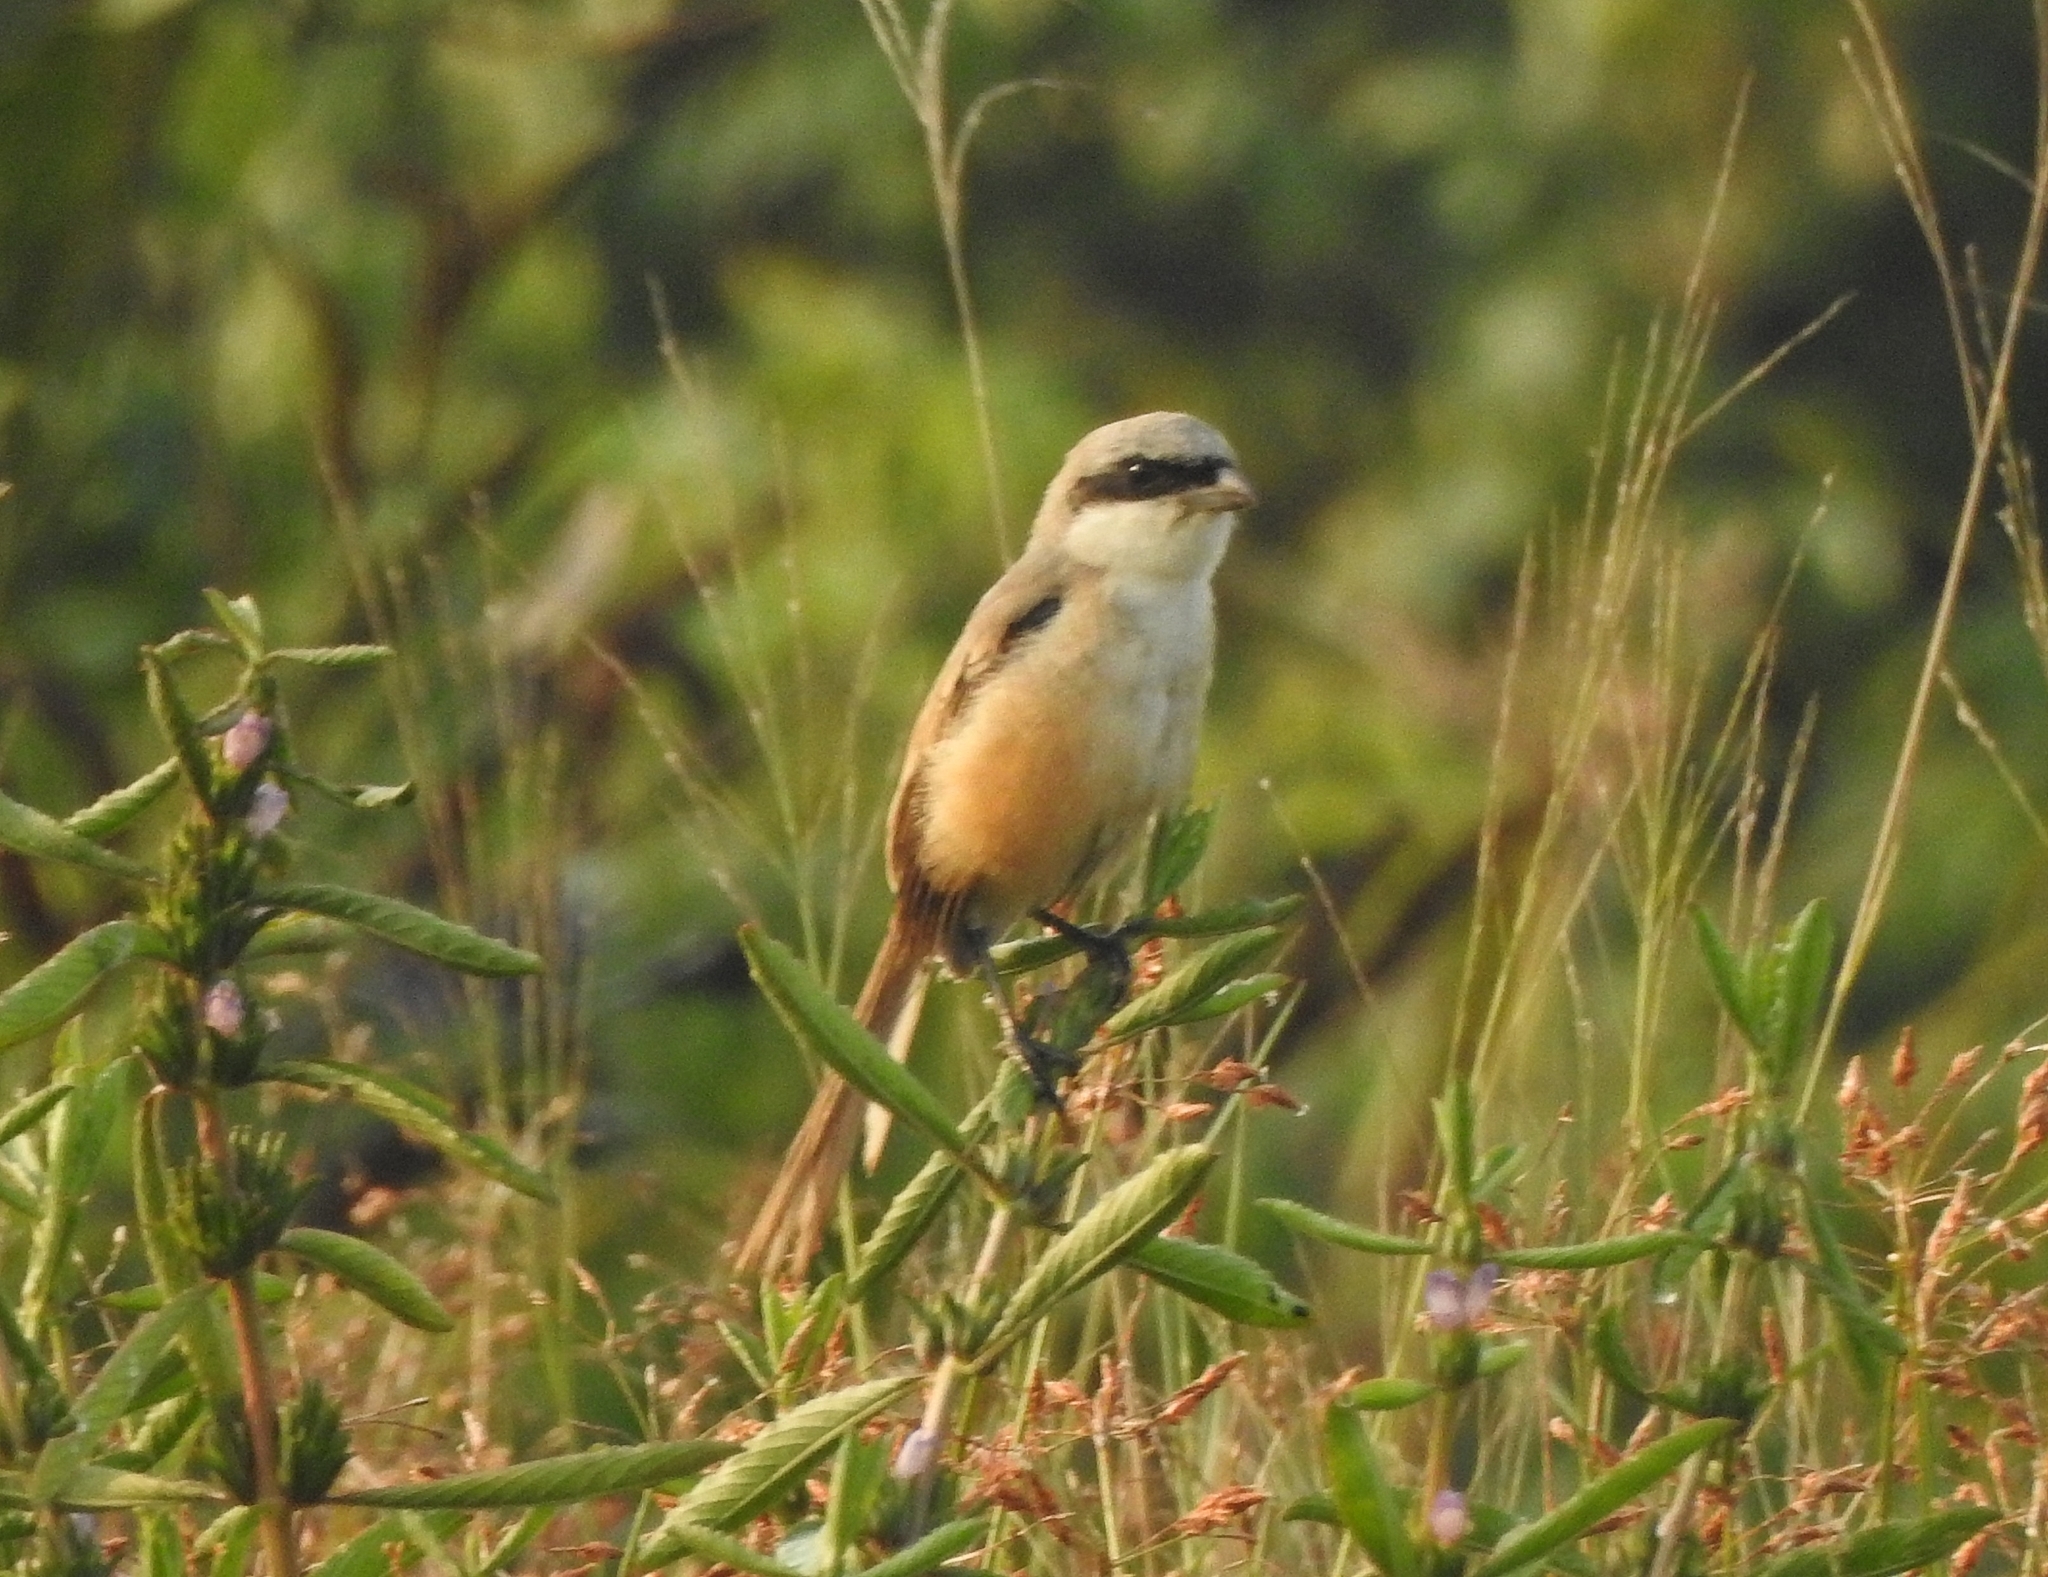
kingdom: Animalia
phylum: Chordata
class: Aves
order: Passeriformes
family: Laniidae
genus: Lanius
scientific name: Lanius schach
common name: Long-tailed shrike
